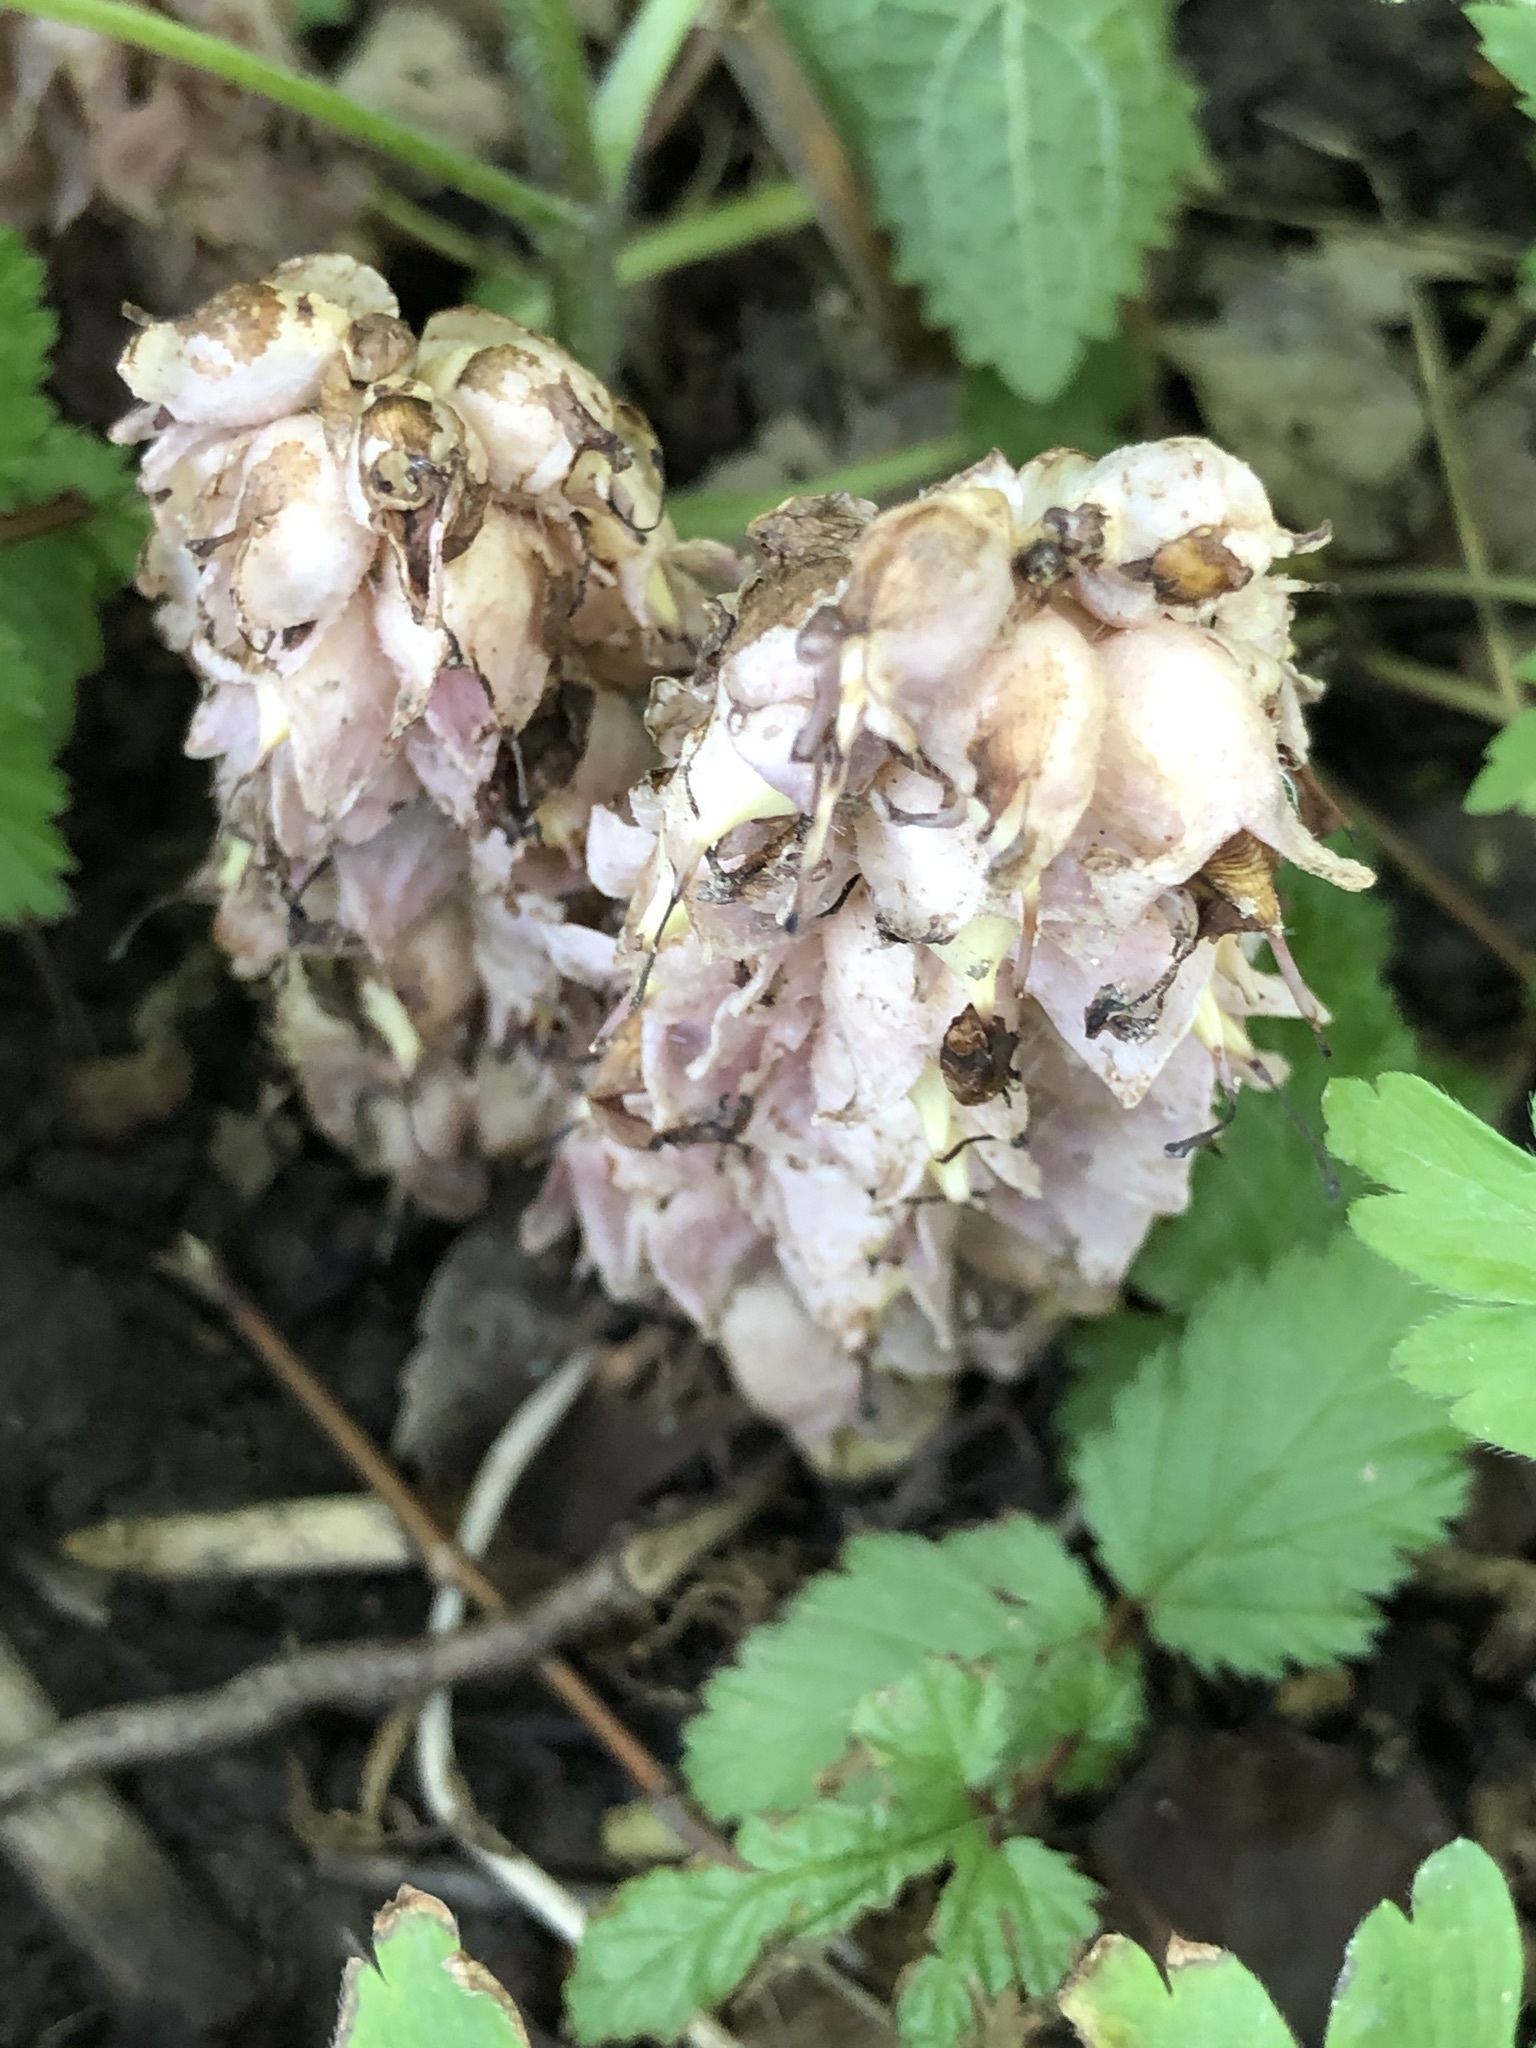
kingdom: Plantae
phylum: Tracheophyta
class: Magnoliopsida
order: Lamiales
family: Orobanchaceae
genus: Lathraea
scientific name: Lathraea squamaria
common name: Toothwort
